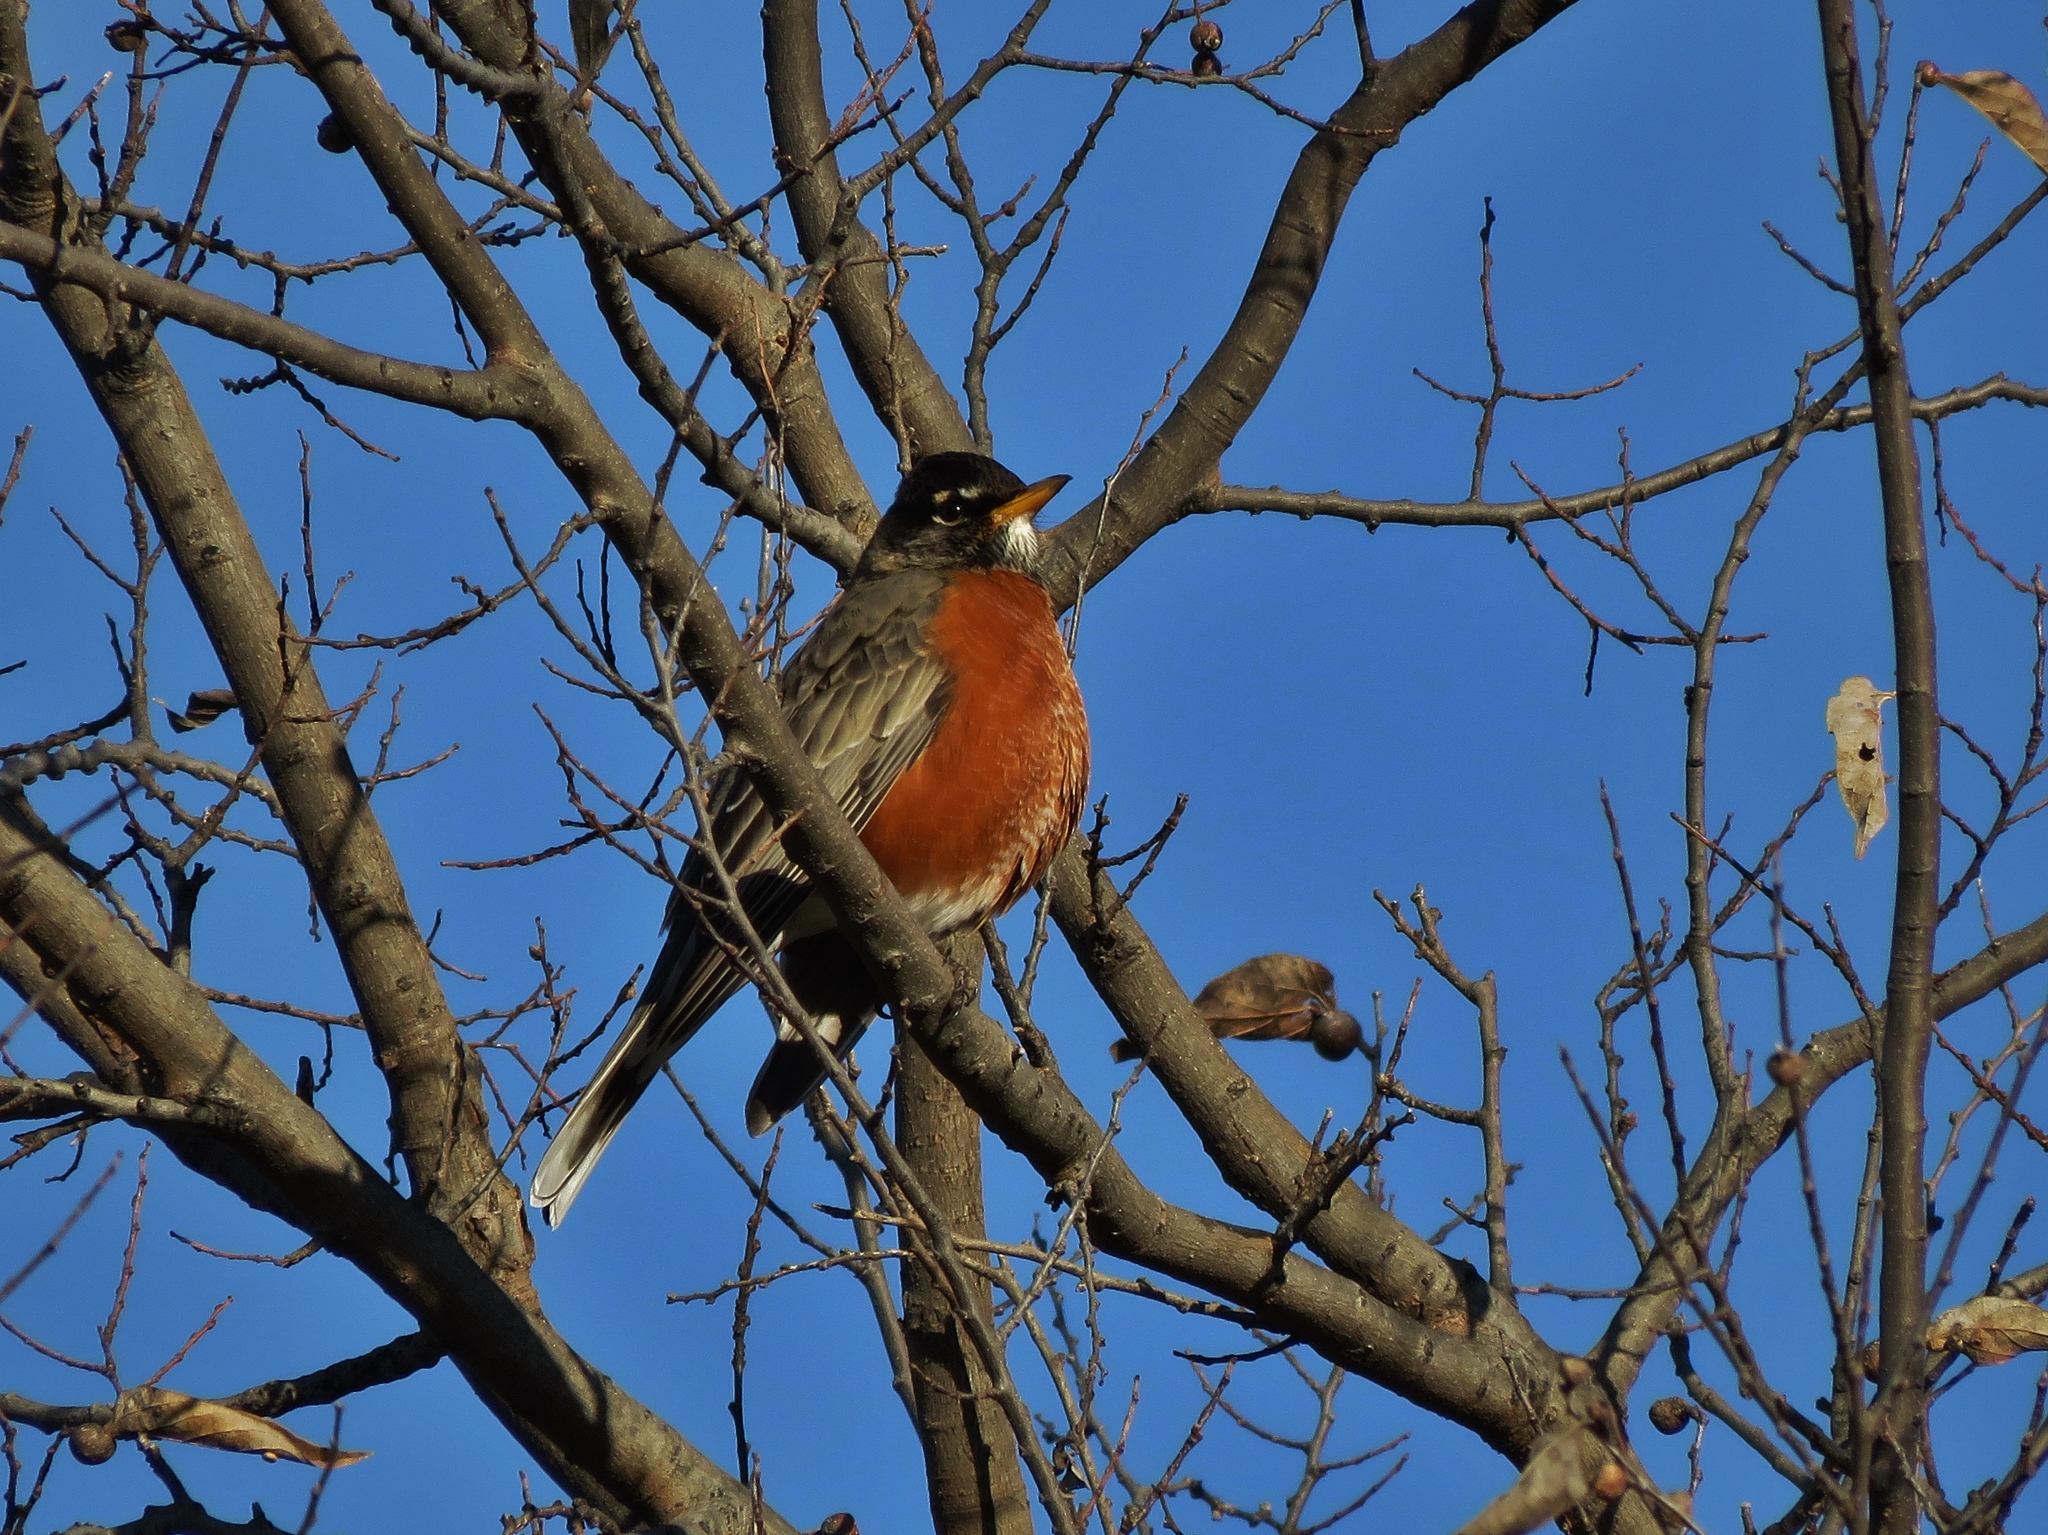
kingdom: Animalia
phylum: Chordata
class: Aves
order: Passeriformes
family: Turdidae
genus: Turdus
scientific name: Turdus migratorius
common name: American robin
